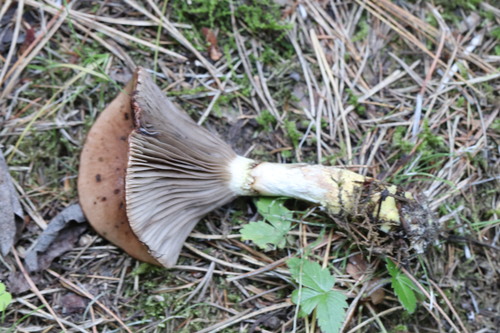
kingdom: Fungi
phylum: Basidiomycota
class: Agaricomycetes
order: Boletales
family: Gomphidiaceae
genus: Gomphidius
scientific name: Gomphidius glutinosus
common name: Slimy spike
